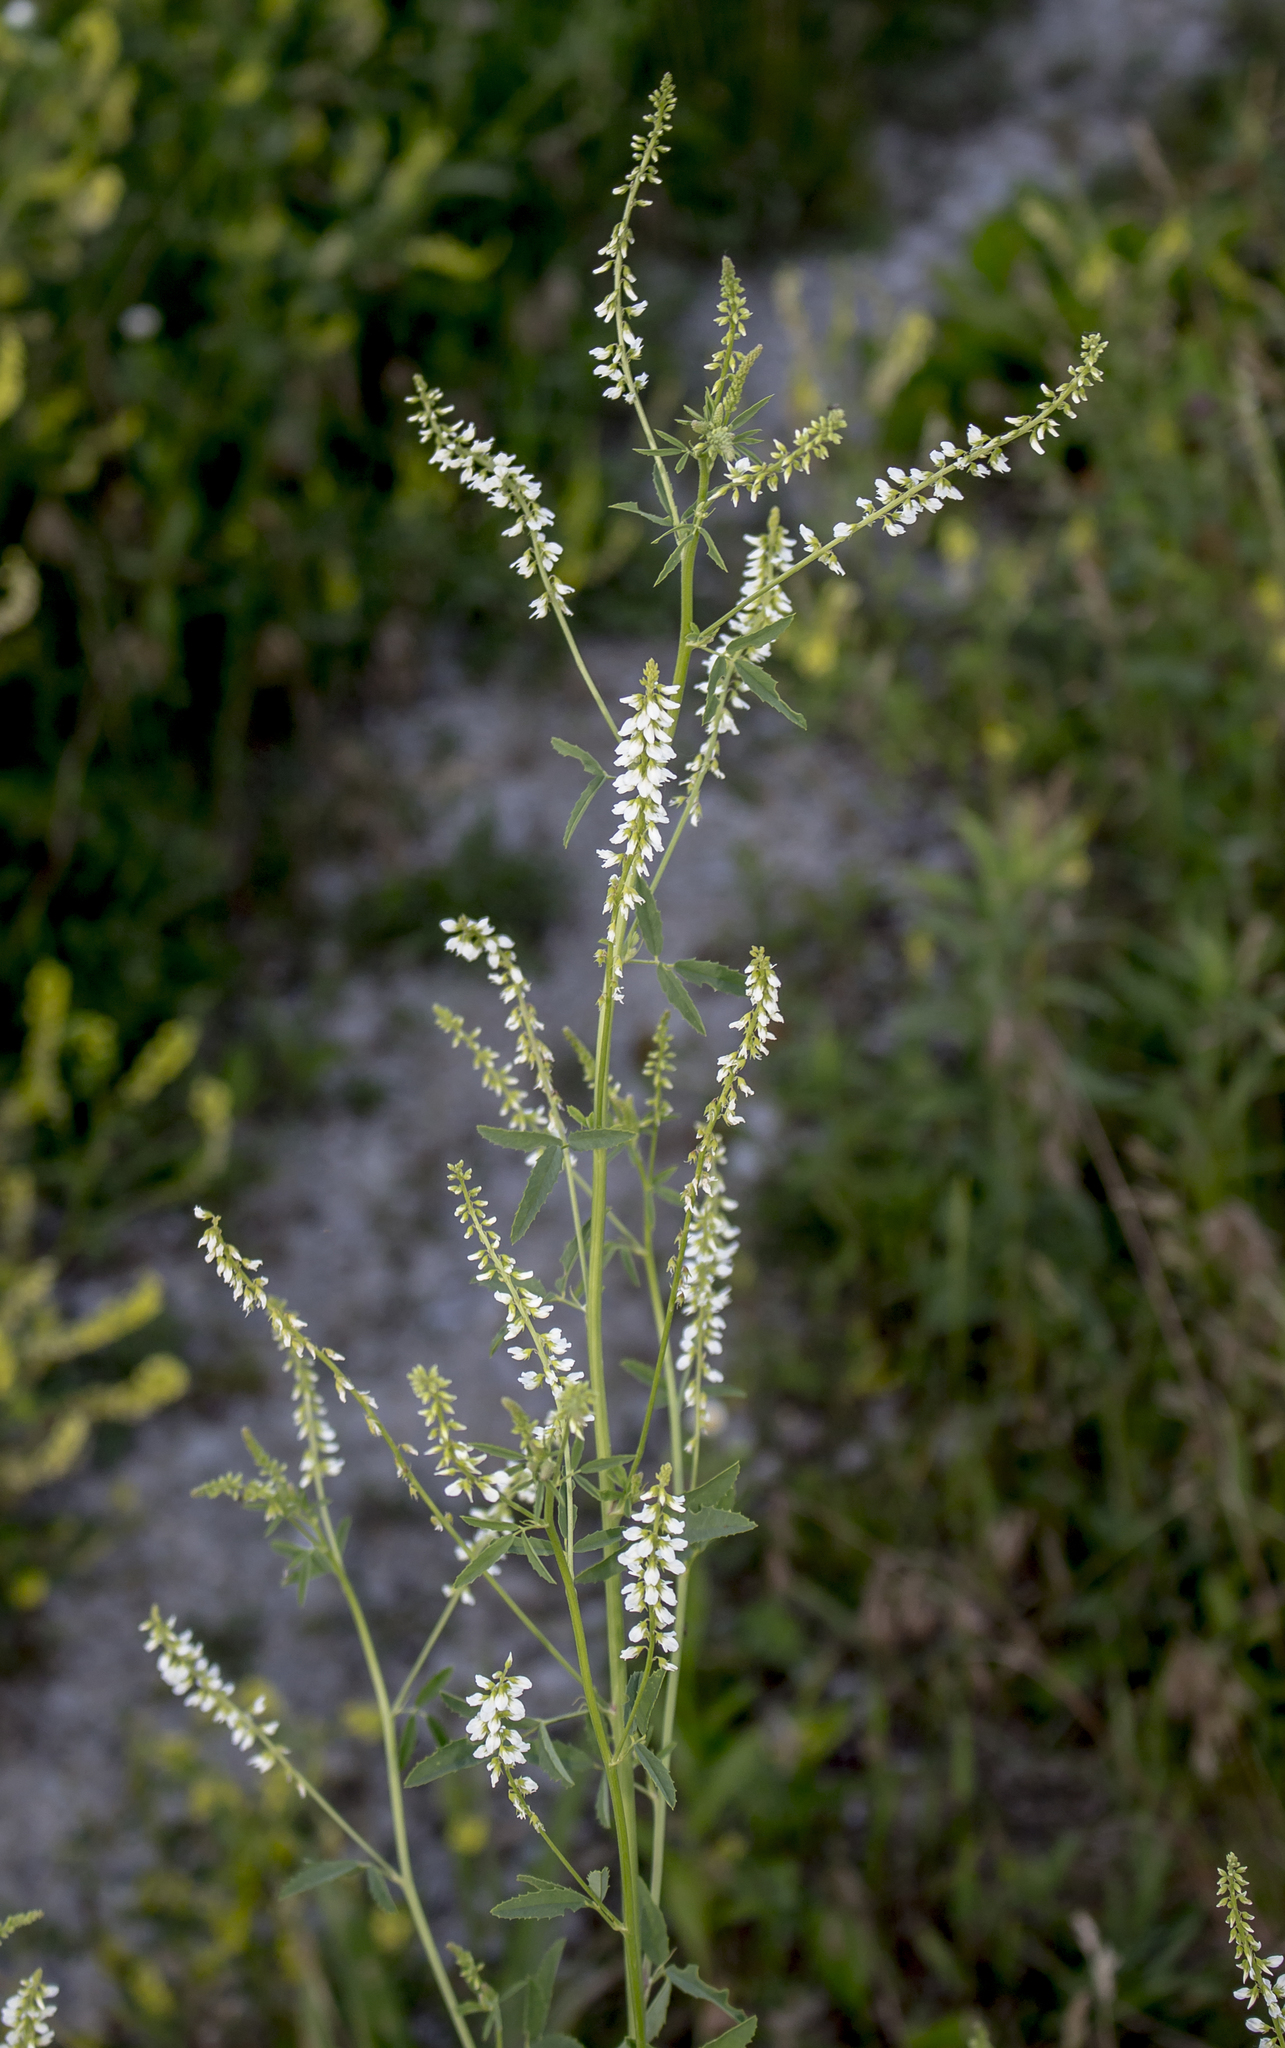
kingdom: Plantae
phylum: Tracheophyta
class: Magnoliopsida
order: Fabales
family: Fabaceae
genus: Melilotus
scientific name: Melilotus albus
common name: White melilot
